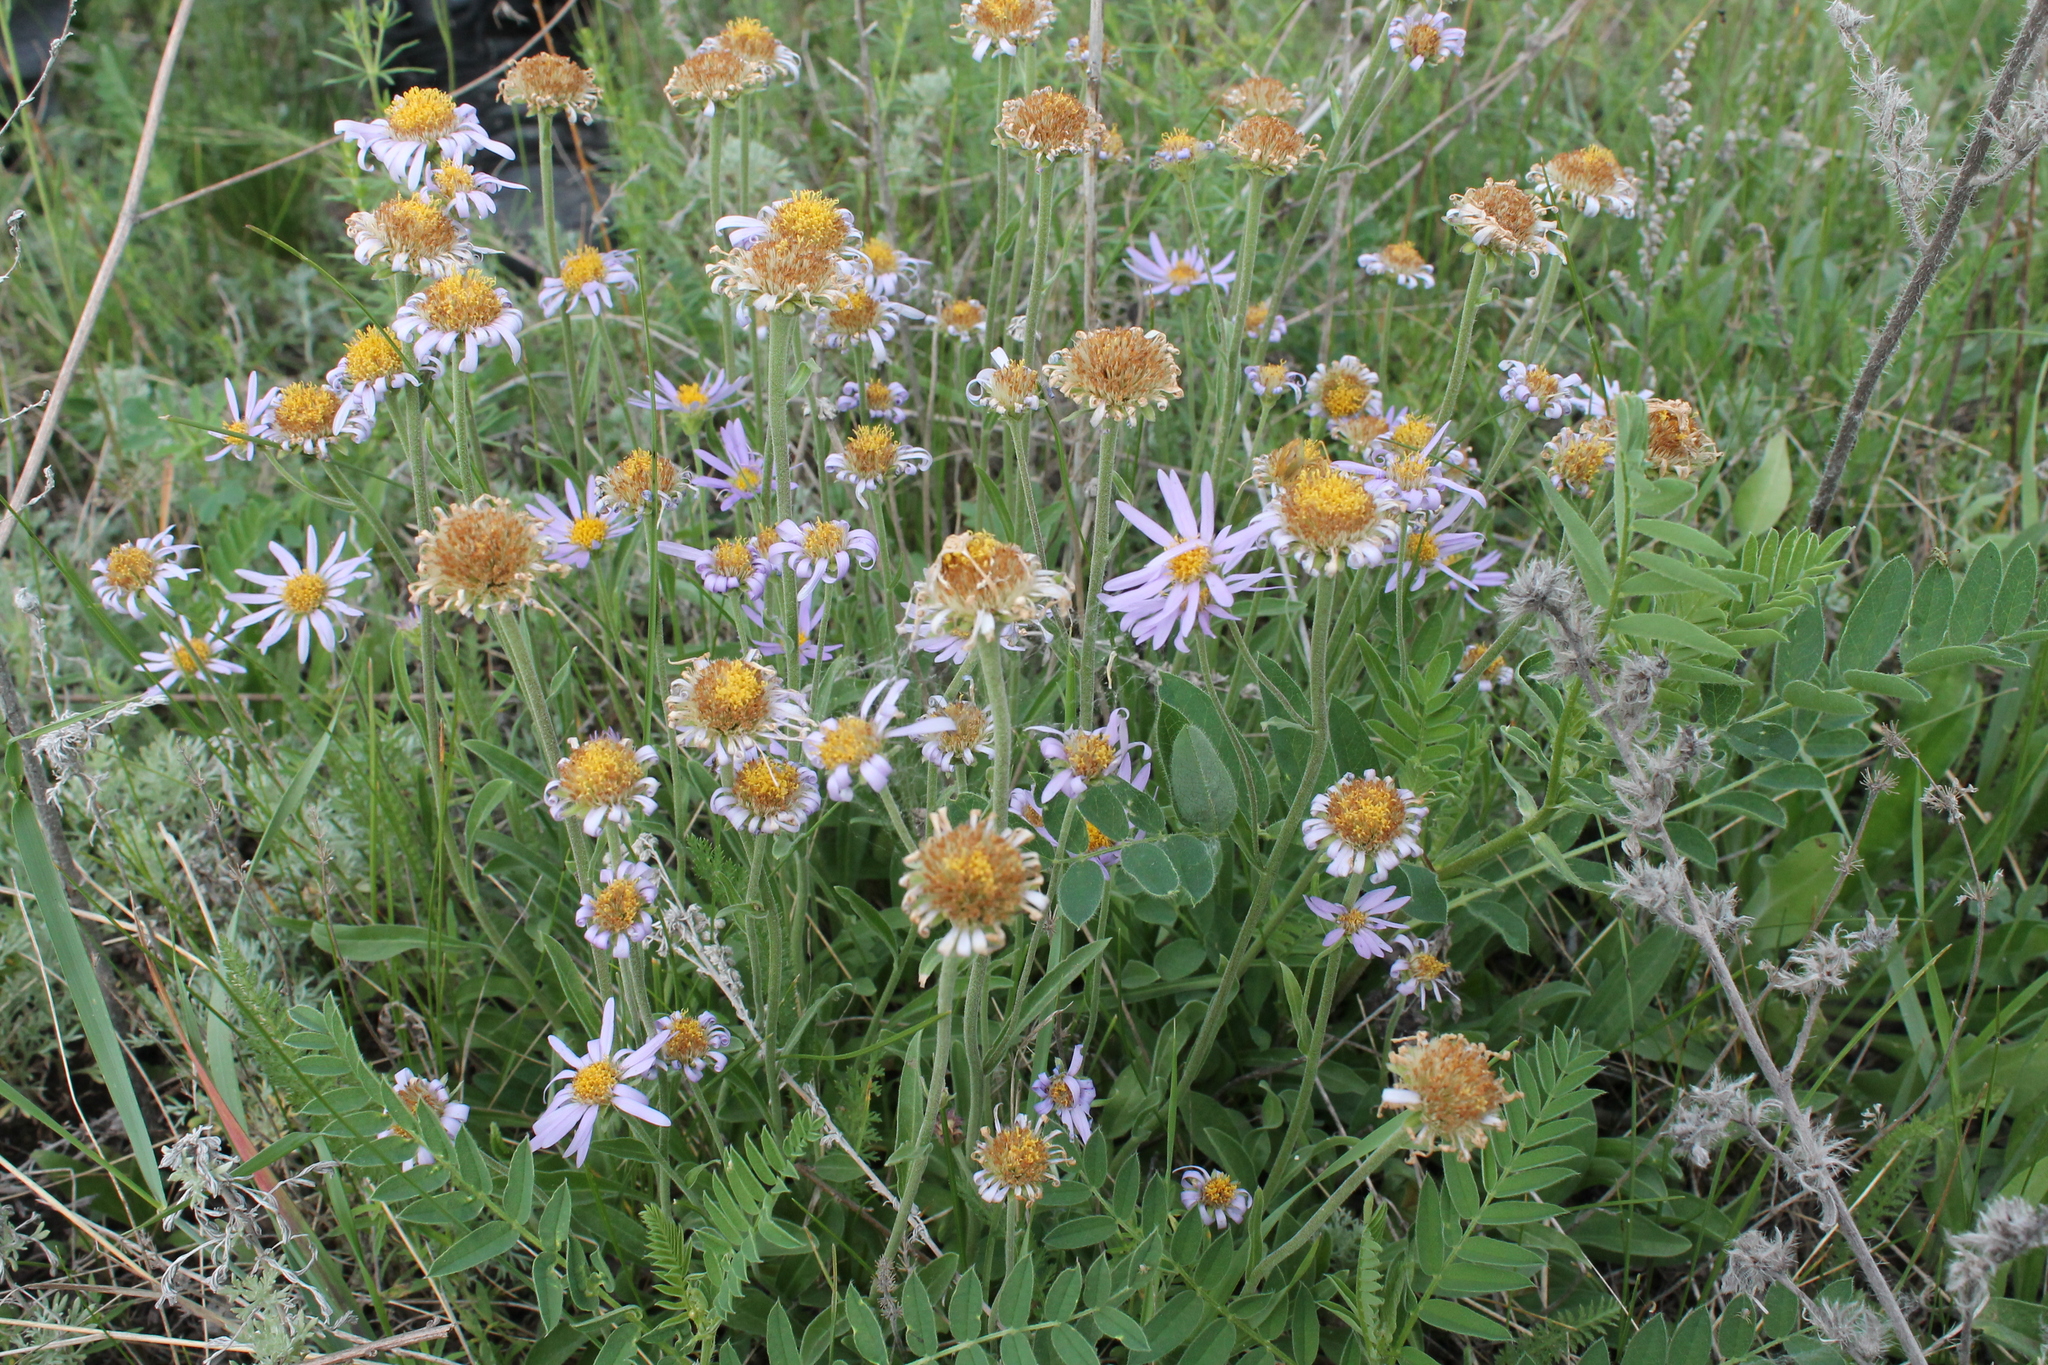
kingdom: Plantae
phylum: Tracheophyta
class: Magnoliopsida
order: Asterales
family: Asteraceae
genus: Aster
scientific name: Aster alpinus
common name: Alpine aster
